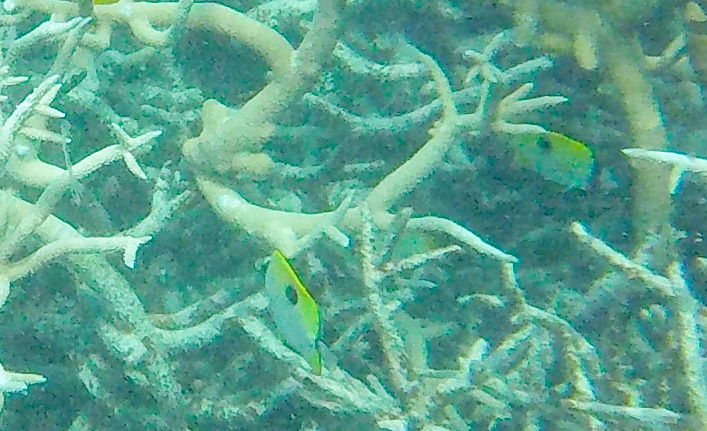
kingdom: Animalia
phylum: Chordata
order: Perciformes
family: Chaetodontidae
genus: Chaetodon
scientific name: Chaetodon unimaculatus
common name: Teardrop butterflyfish
